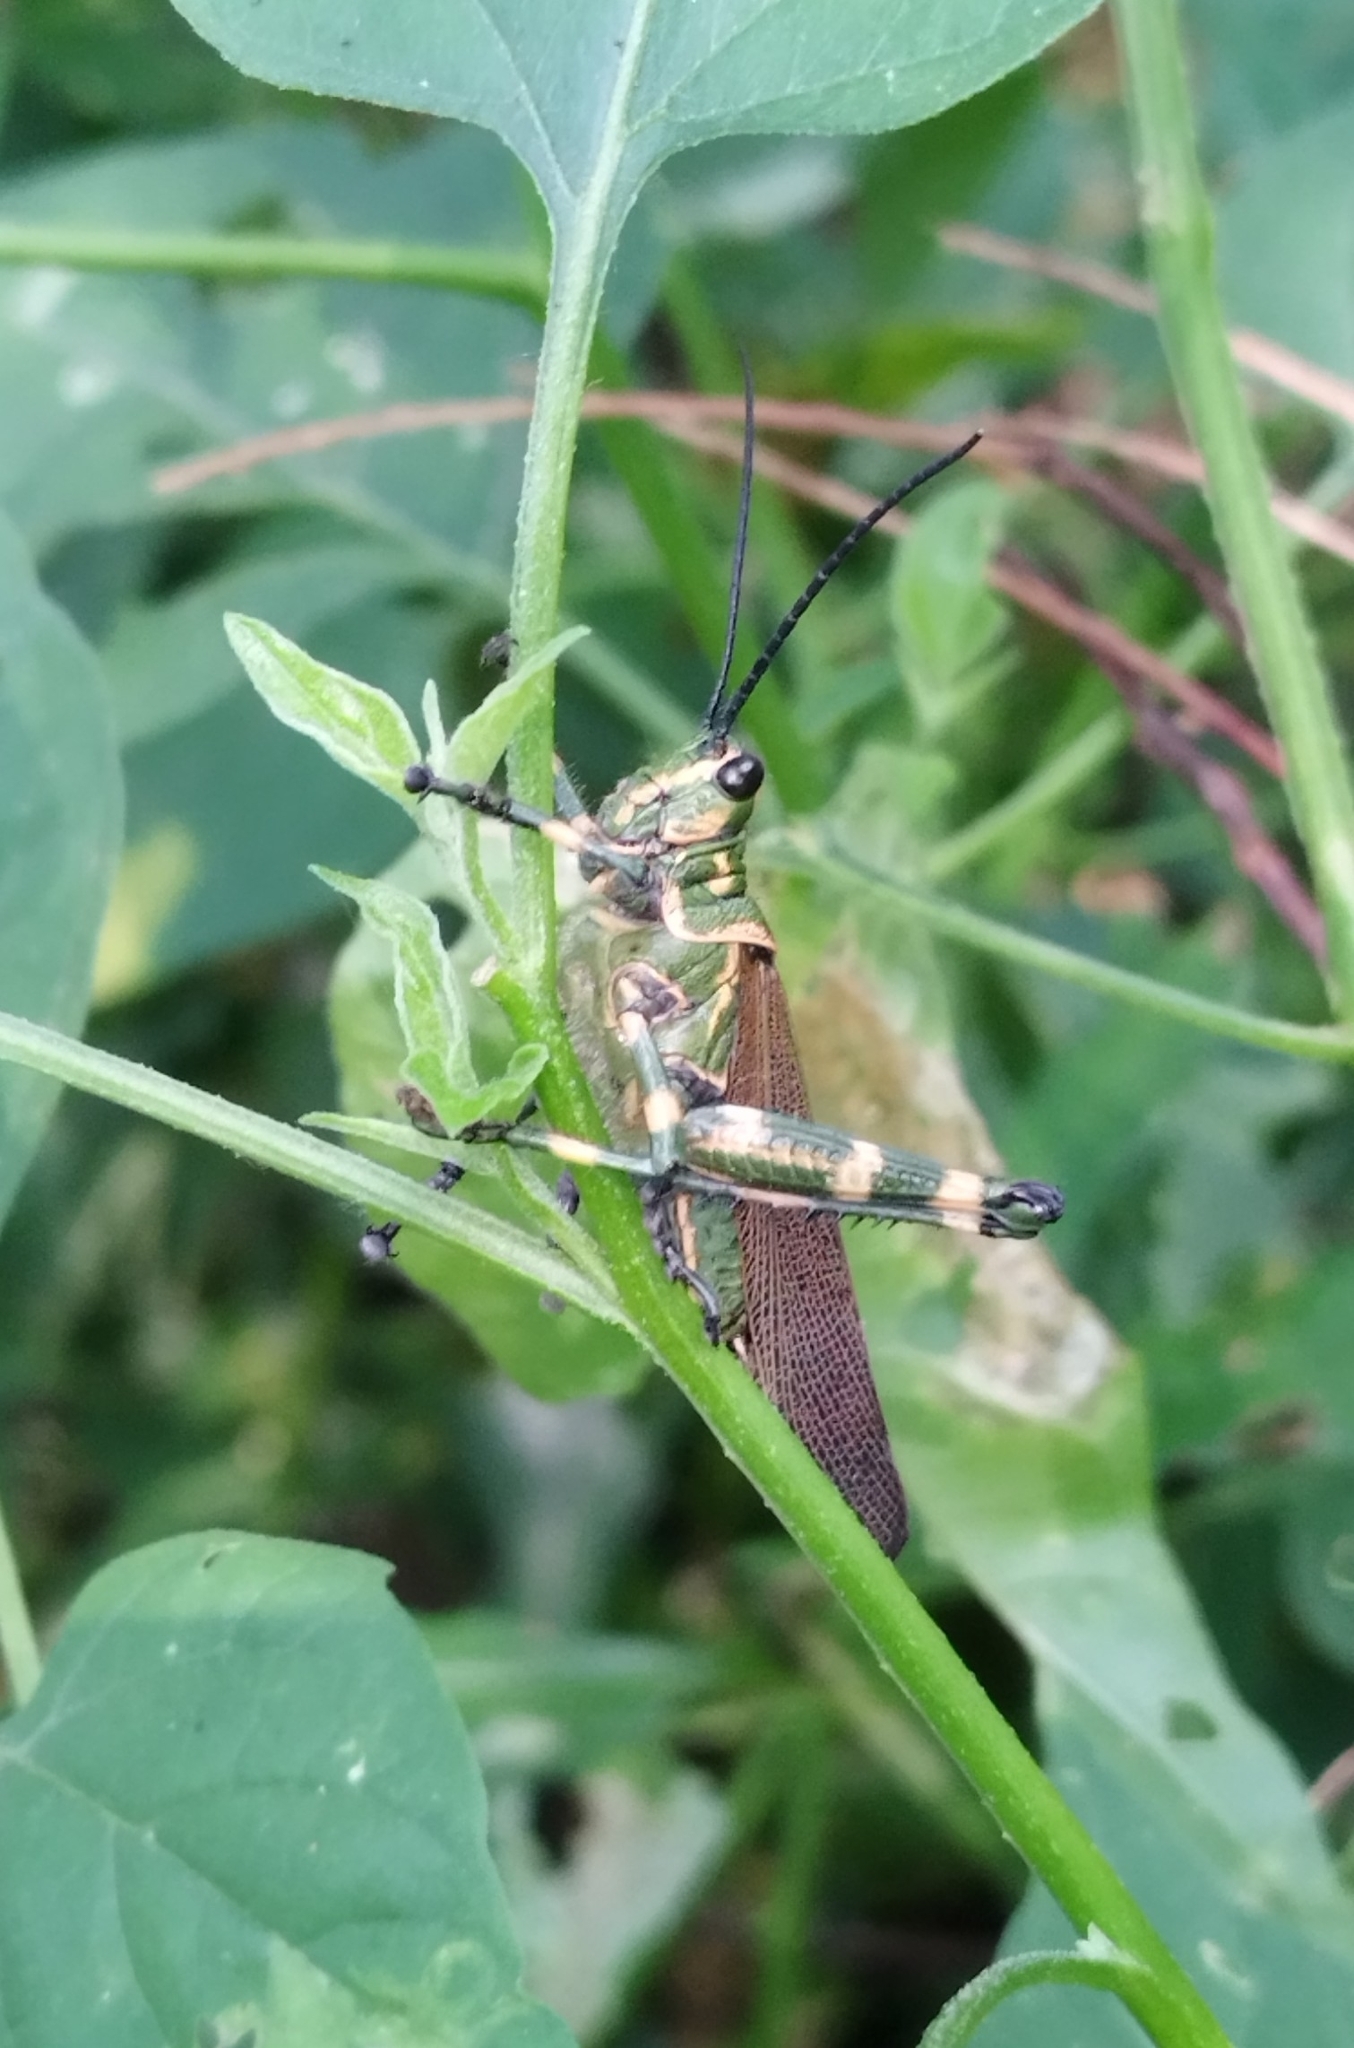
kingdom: Animalia
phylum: Arthropoda
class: Insecta
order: Orthoptera
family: Romaleidae
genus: Chromacris
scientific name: Chromacris speciosa
